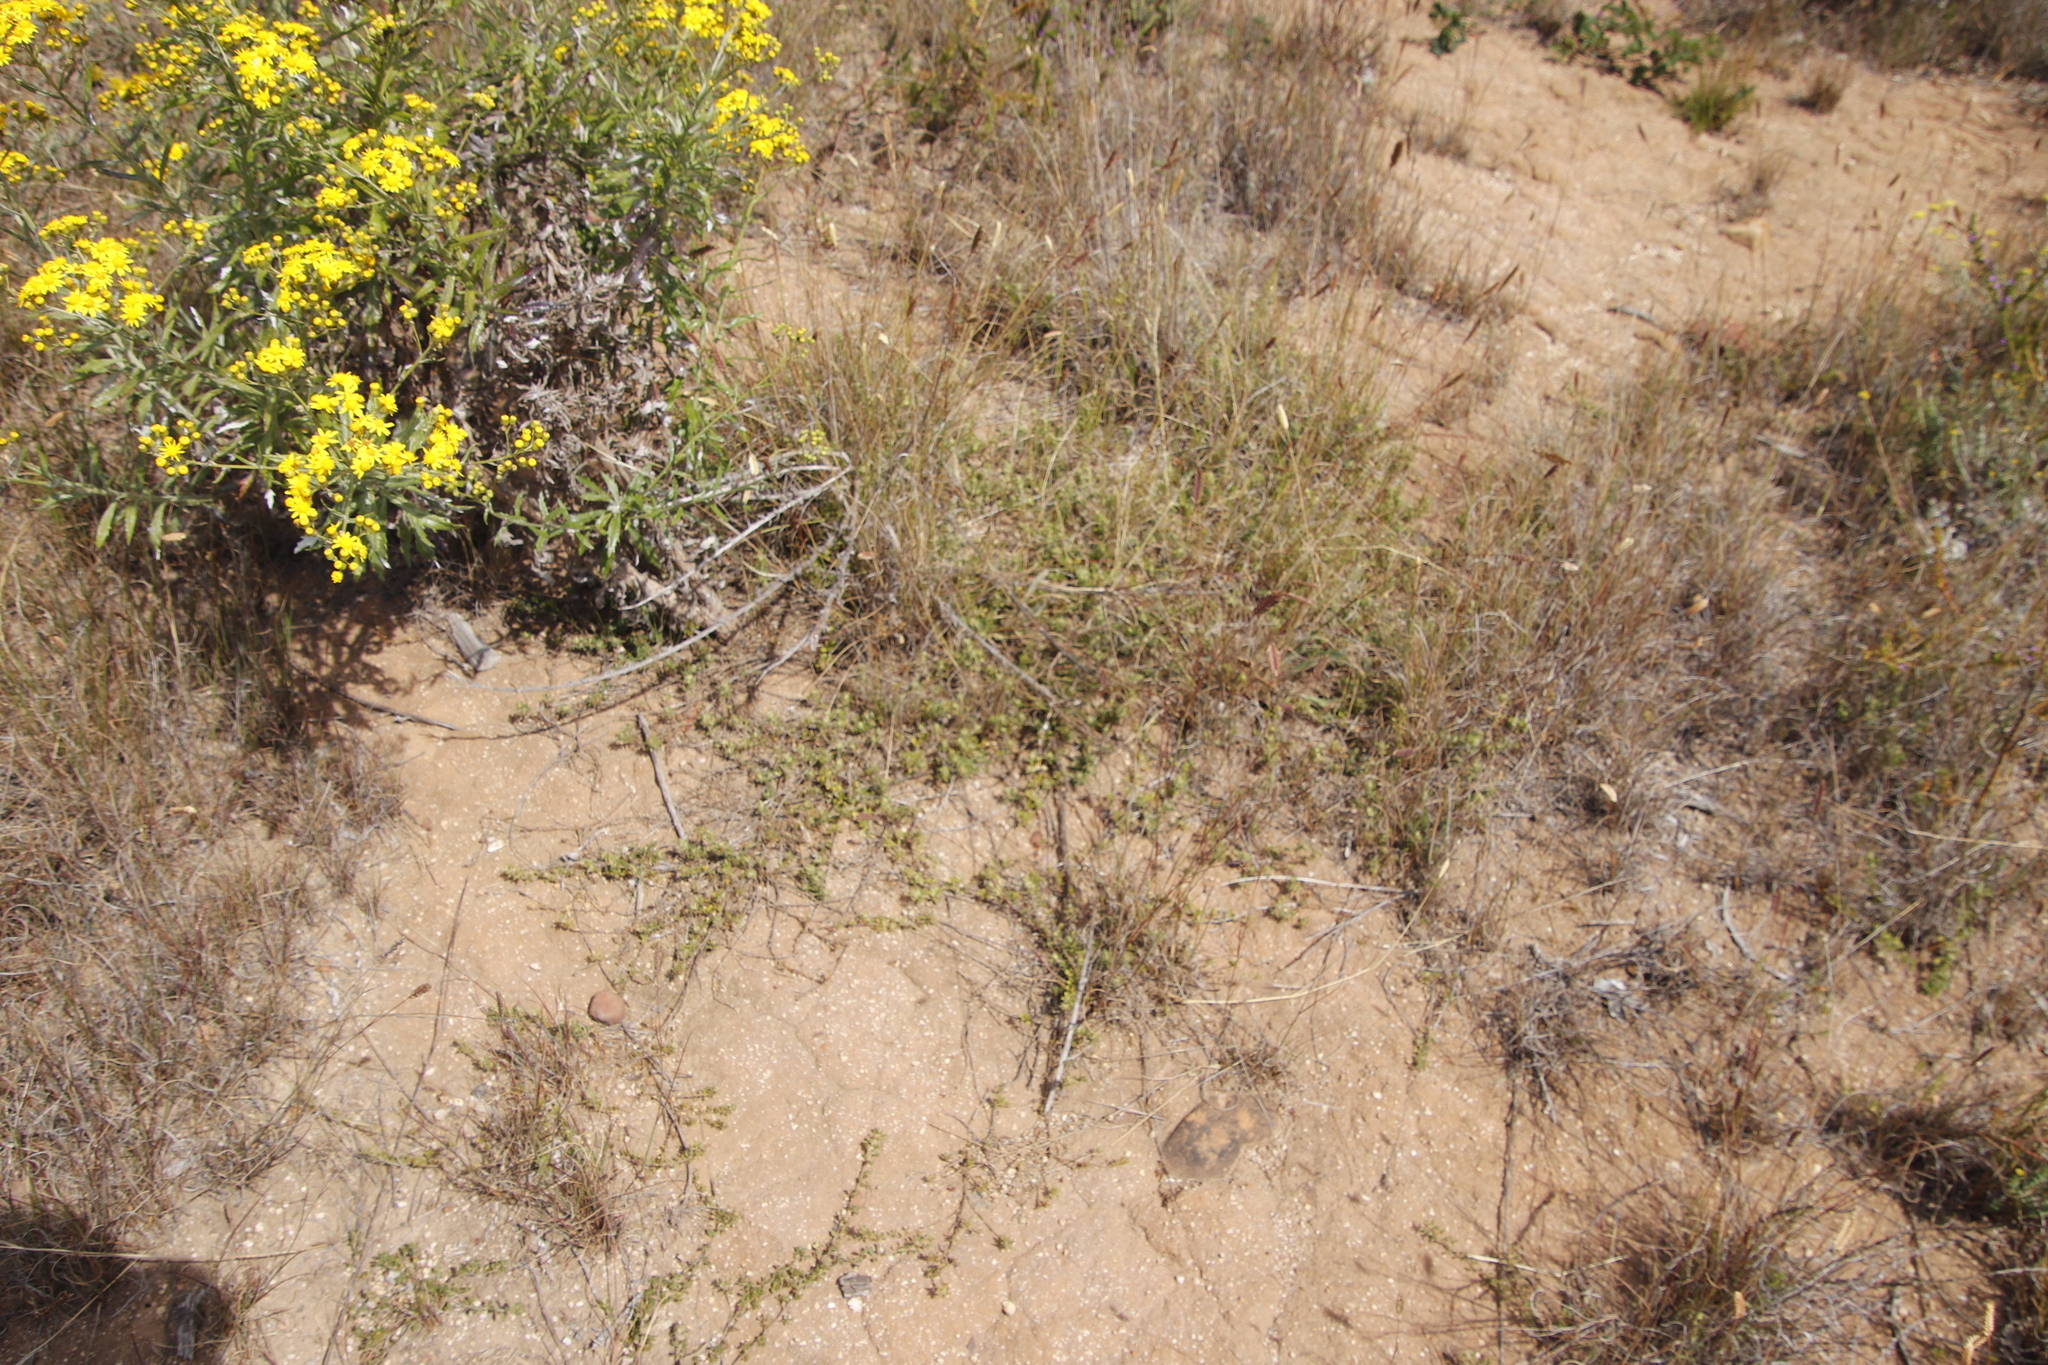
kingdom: Plantae
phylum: Tracheophyta
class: Magnoliopsida
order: Fabales
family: Fabaceae
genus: Psoralea
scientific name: Psoralea fruticans
